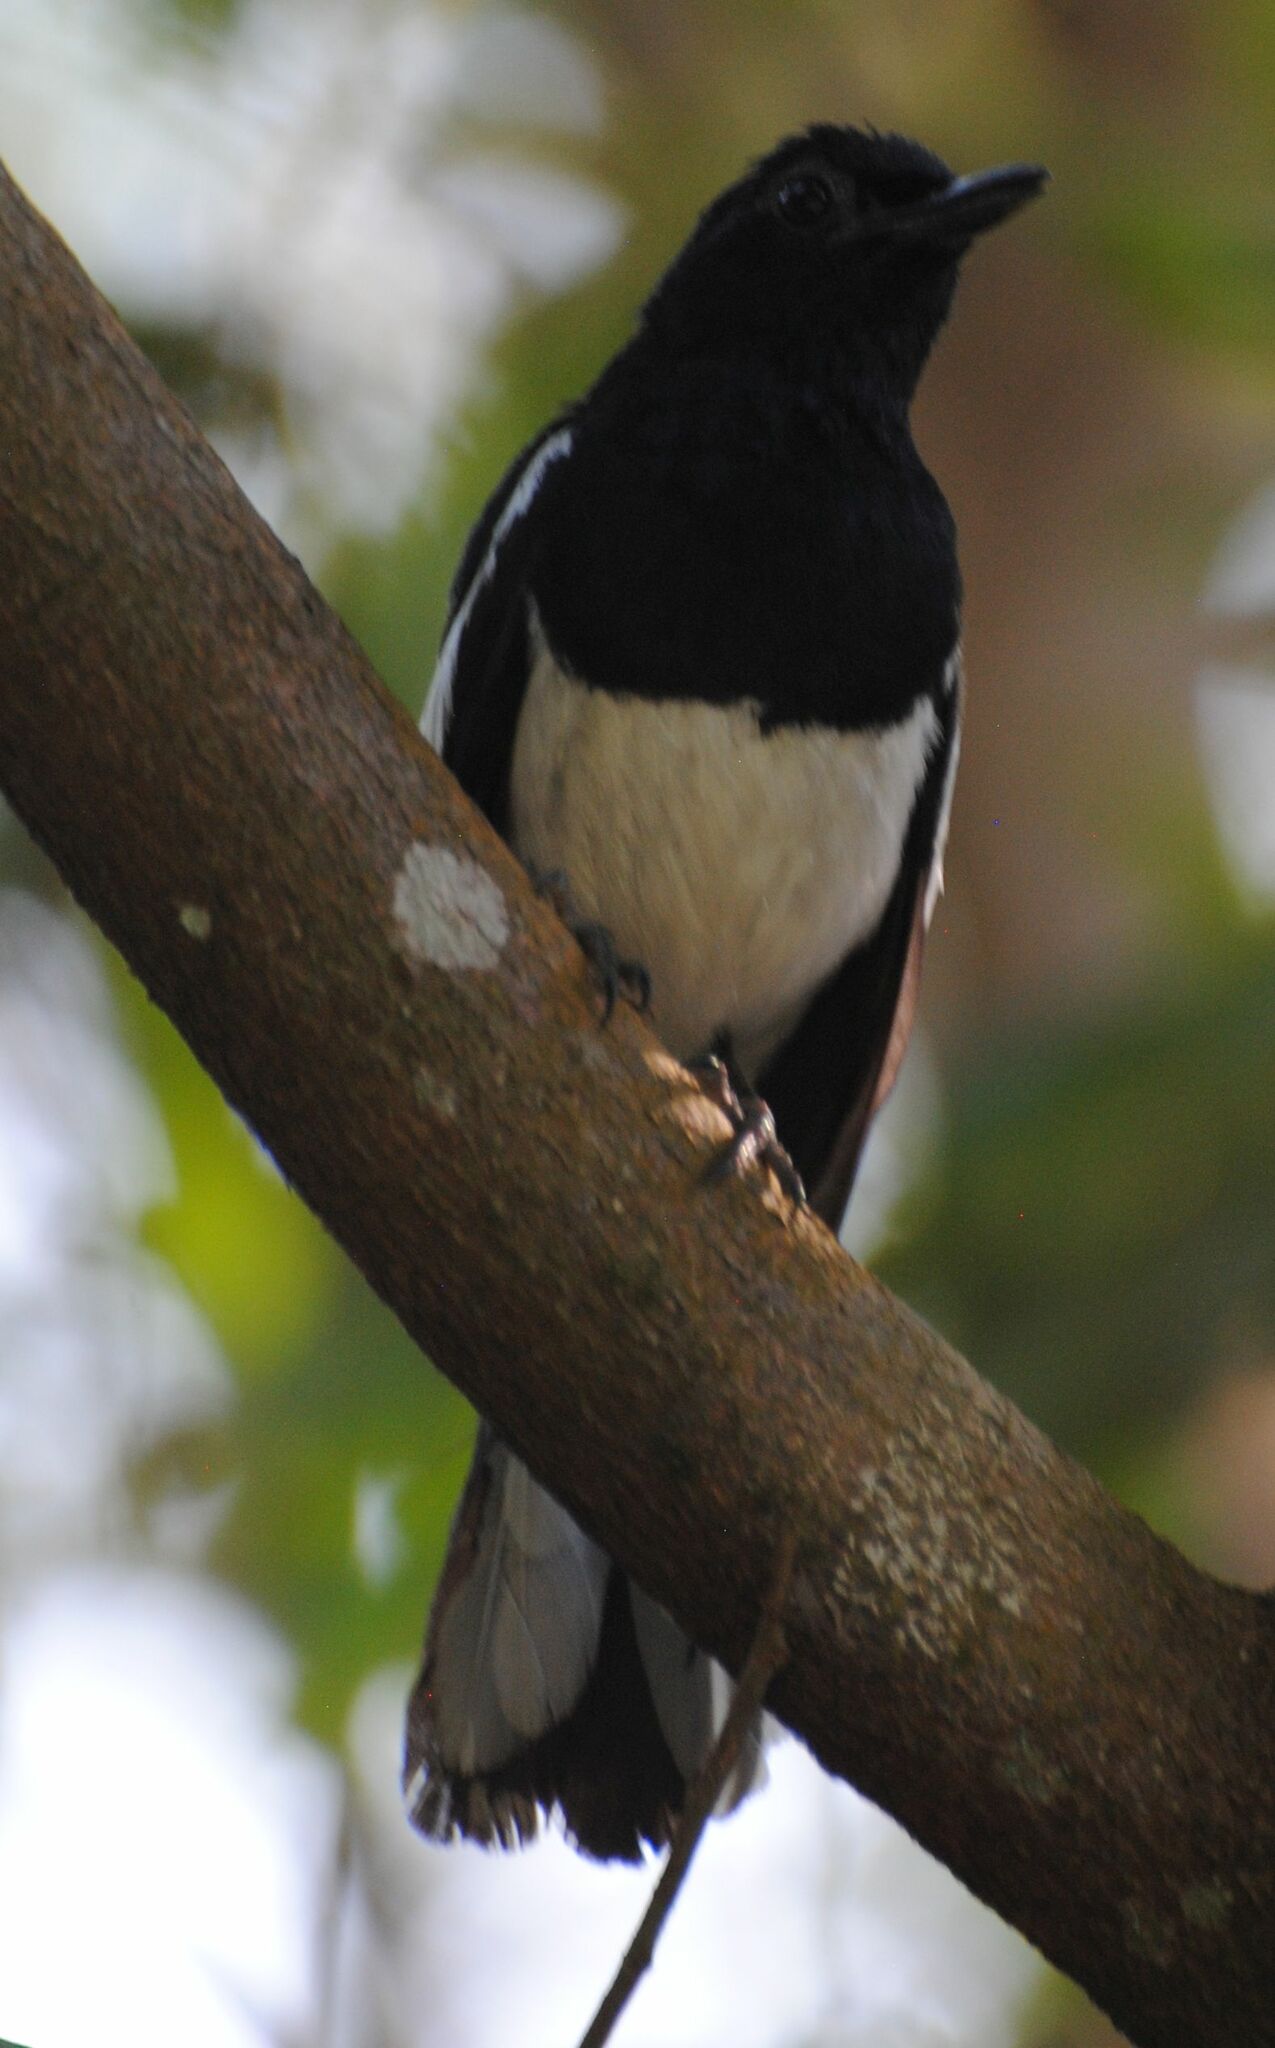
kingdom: Animalia
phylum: Chordata
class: Aves
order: Passeriformes
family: Muscicapidae
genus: Copsychus
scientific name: Copsychus saularis
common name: Oriental magpie-robin
